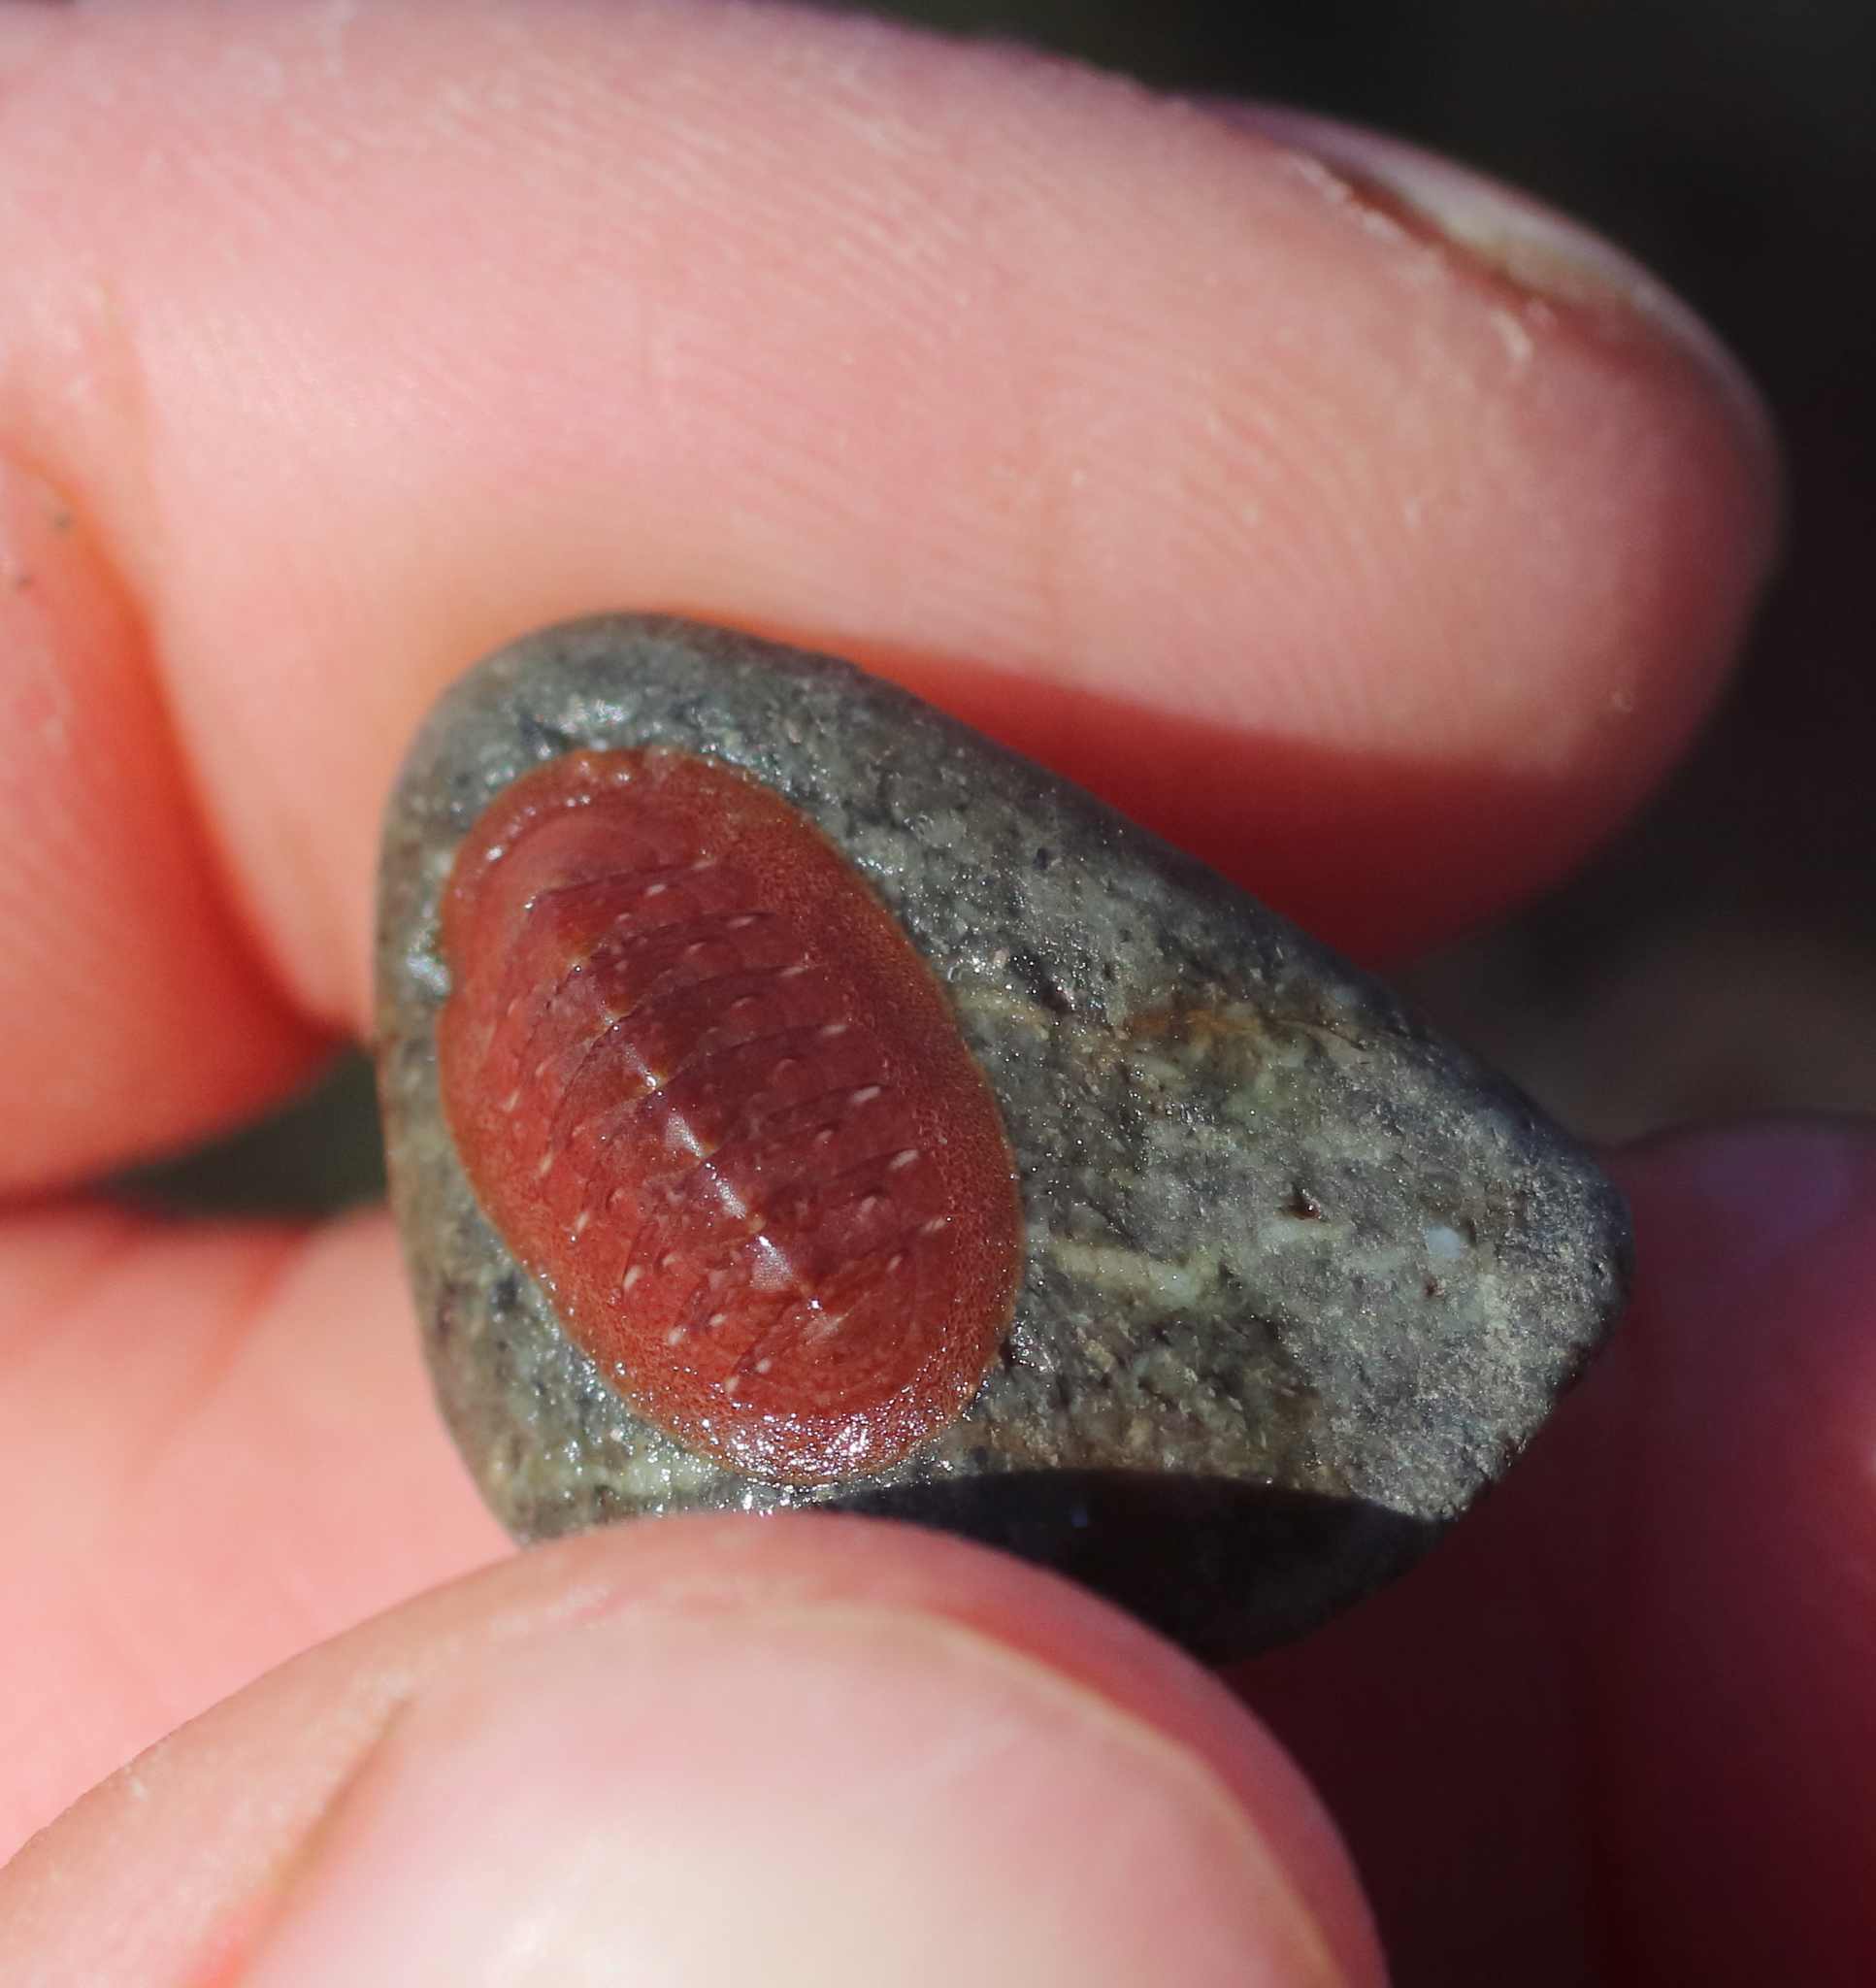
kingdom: Animalia
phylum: Mollusca
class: Polyplacophora
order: Chitonida
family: Ischnochitonidae
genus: Lepidozona
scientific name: Lepidozona interstincta
